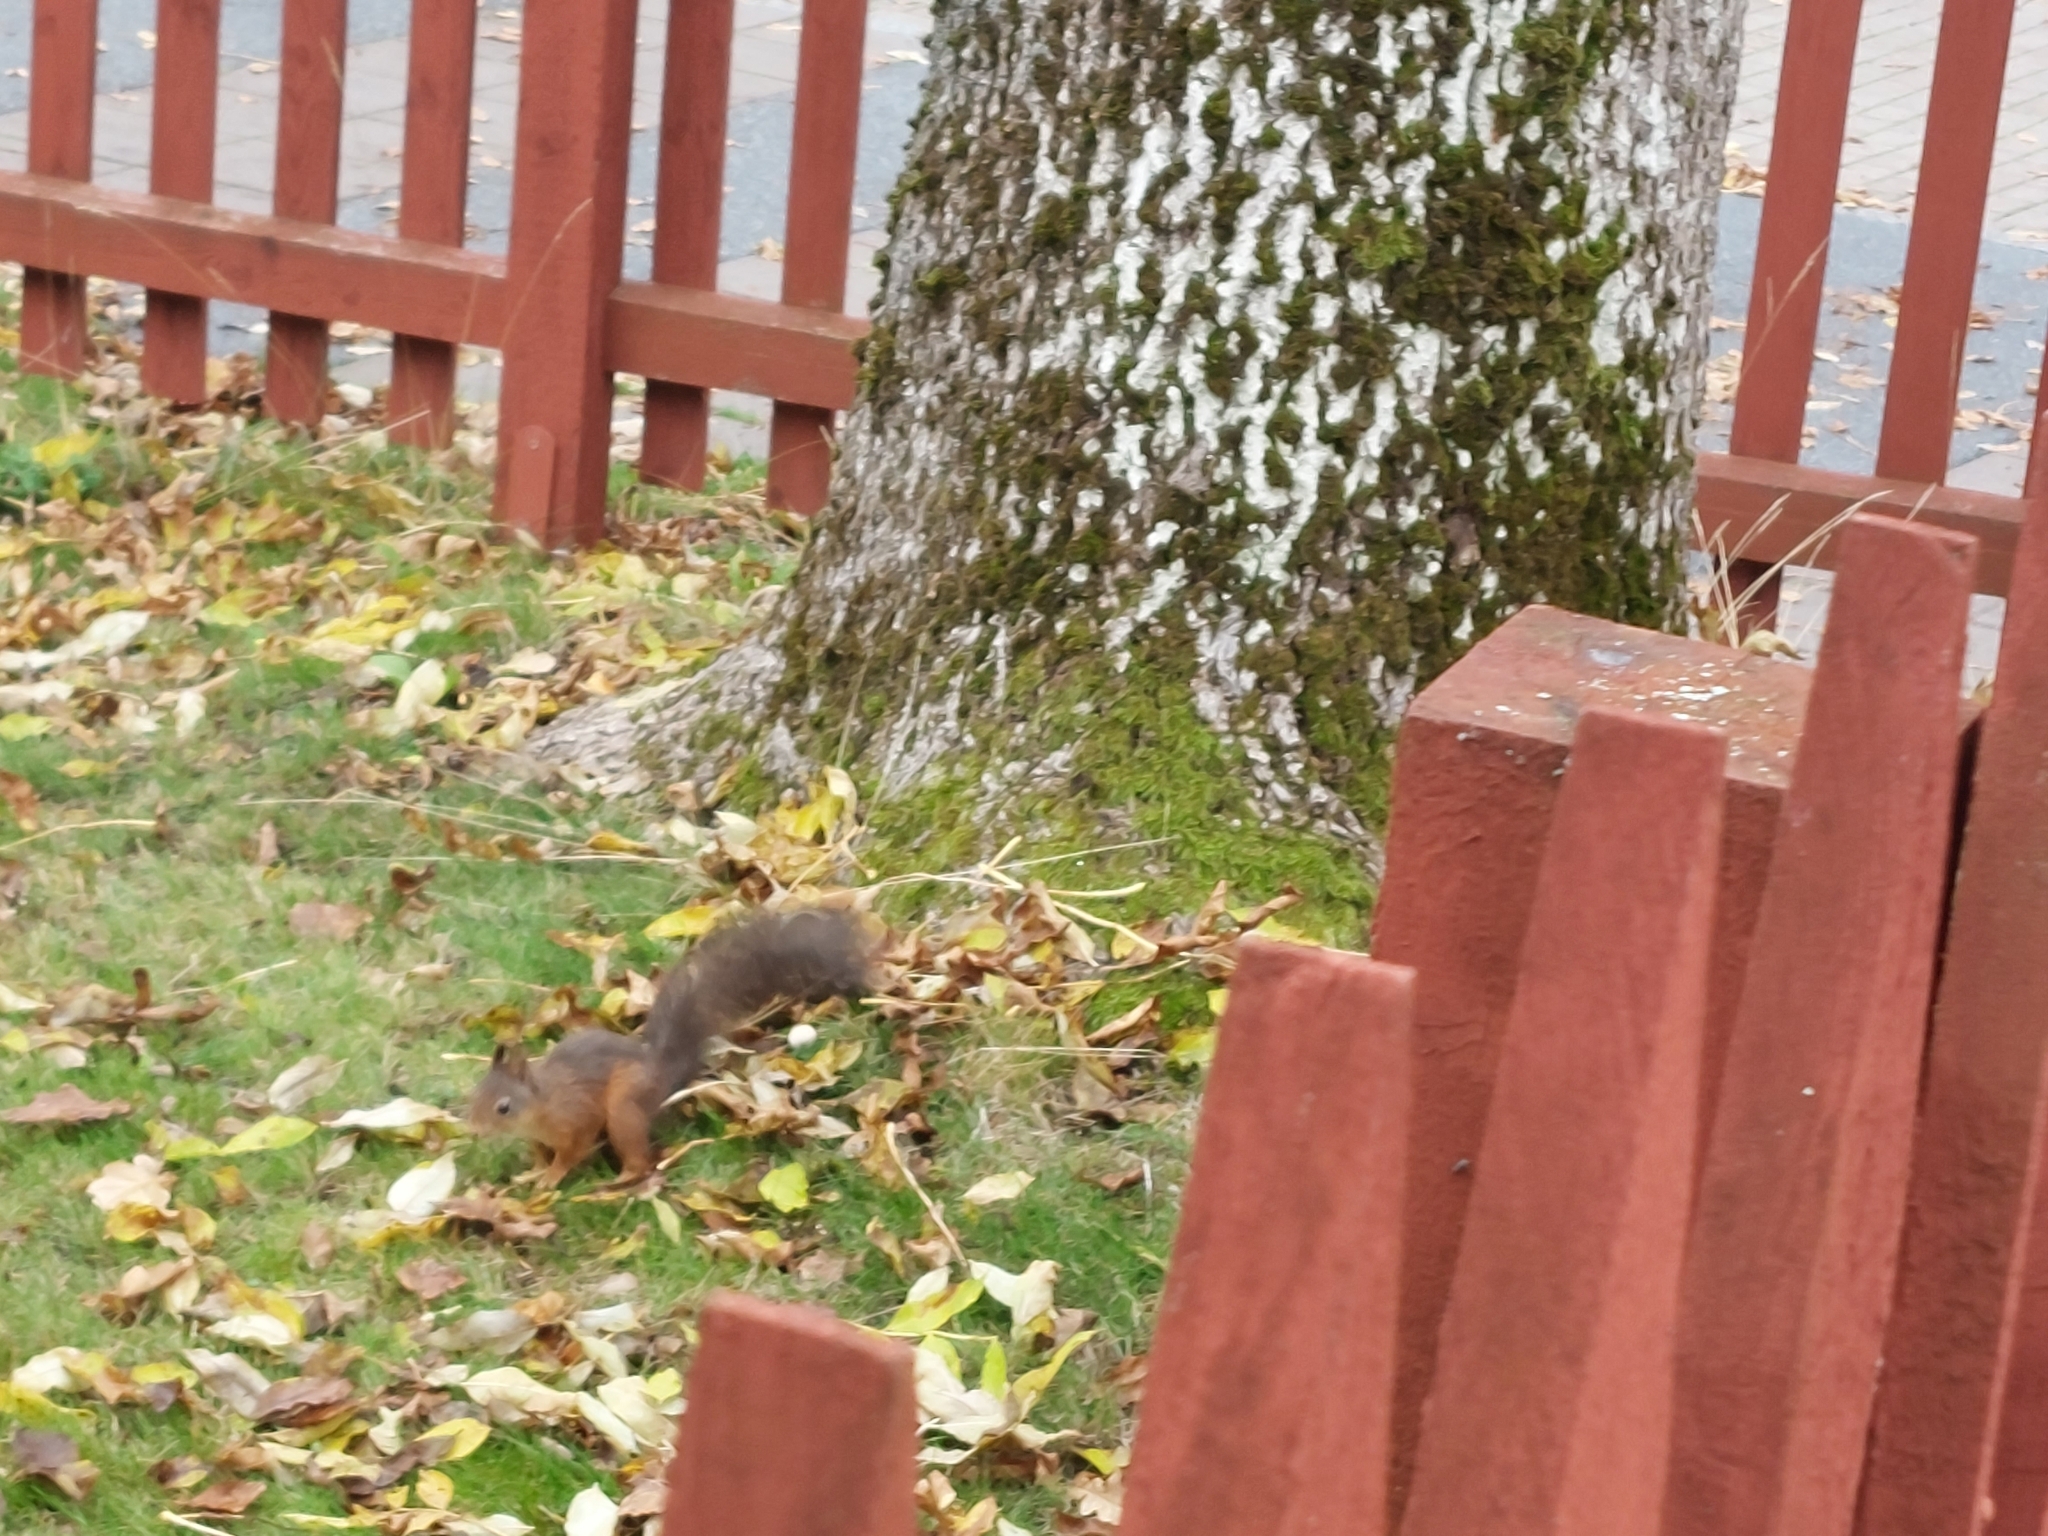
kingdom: Animalia
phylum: Chordata
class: Mammalia
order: Rodentia
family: Sciuridae
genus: Sciurus
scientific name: Sciurus vulgaris
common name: Eurasian red squirrel
